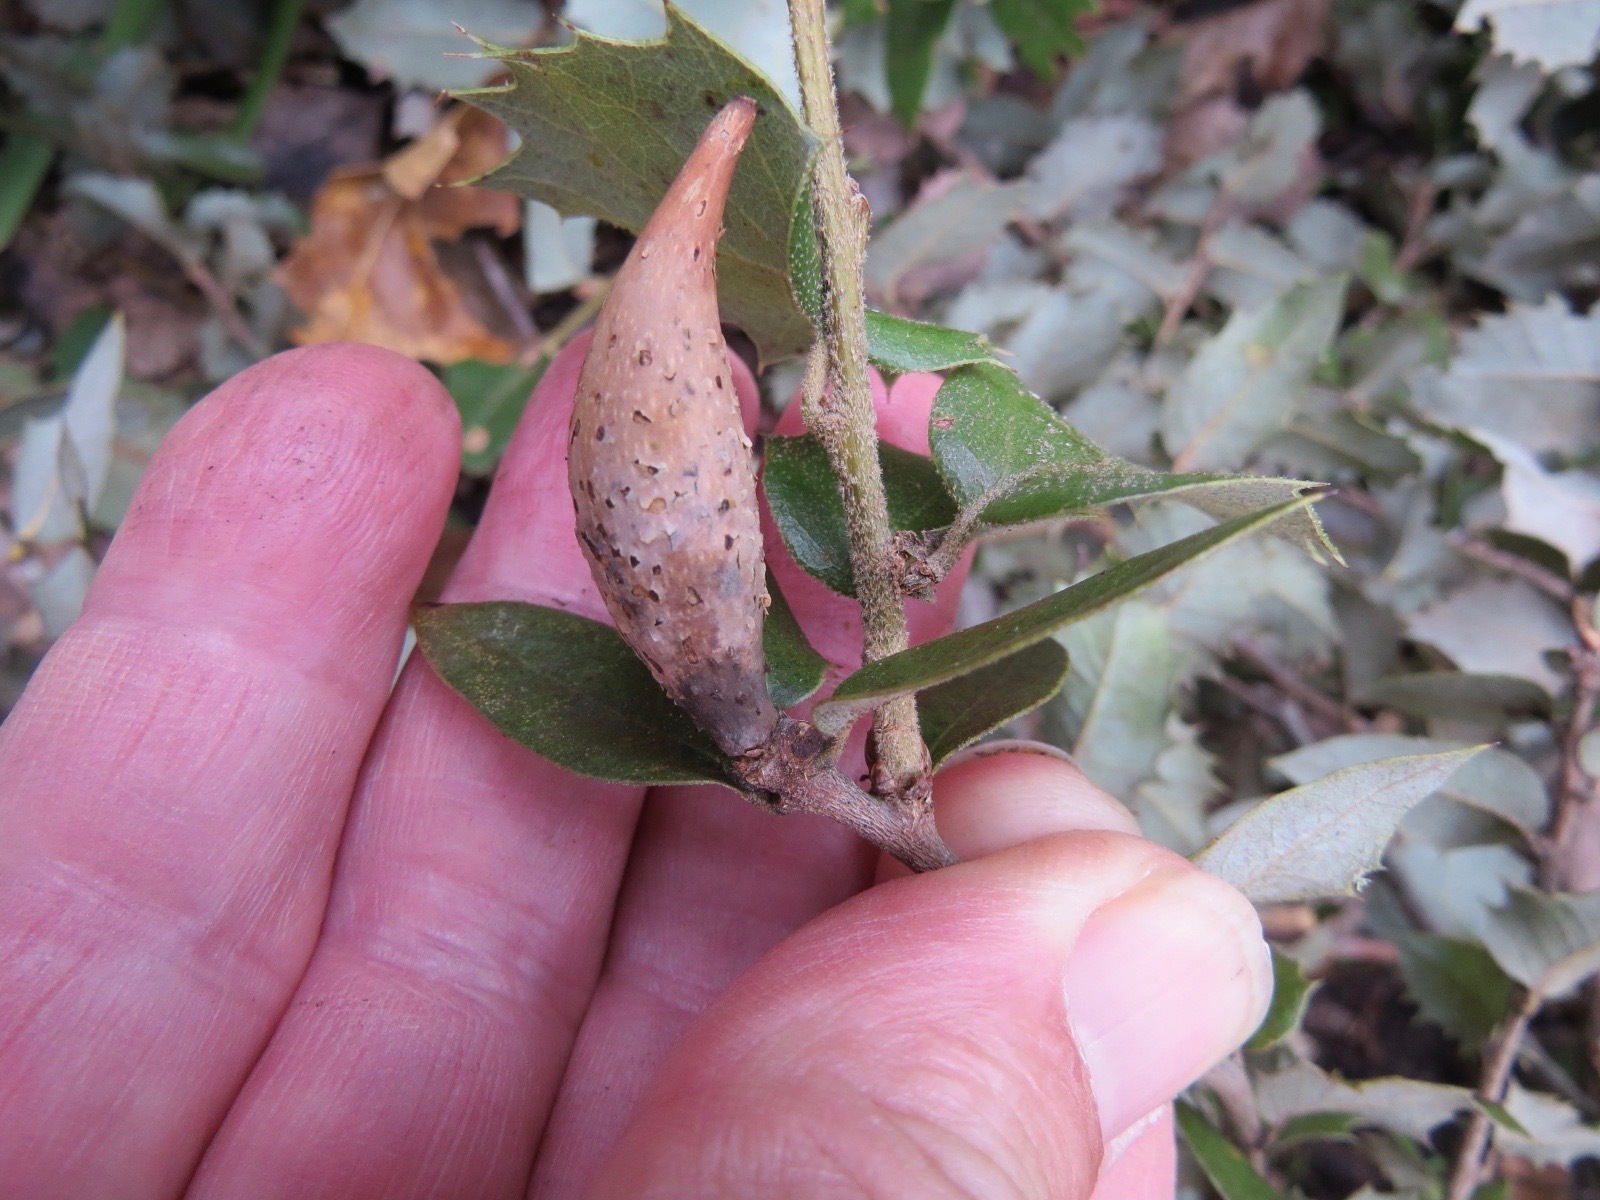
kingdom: Animalia
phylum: Arthropoda
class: Insecta
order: Hymenoptera
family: Cynipidae
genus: Heteroecus
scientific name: Heteroecus pacificus
